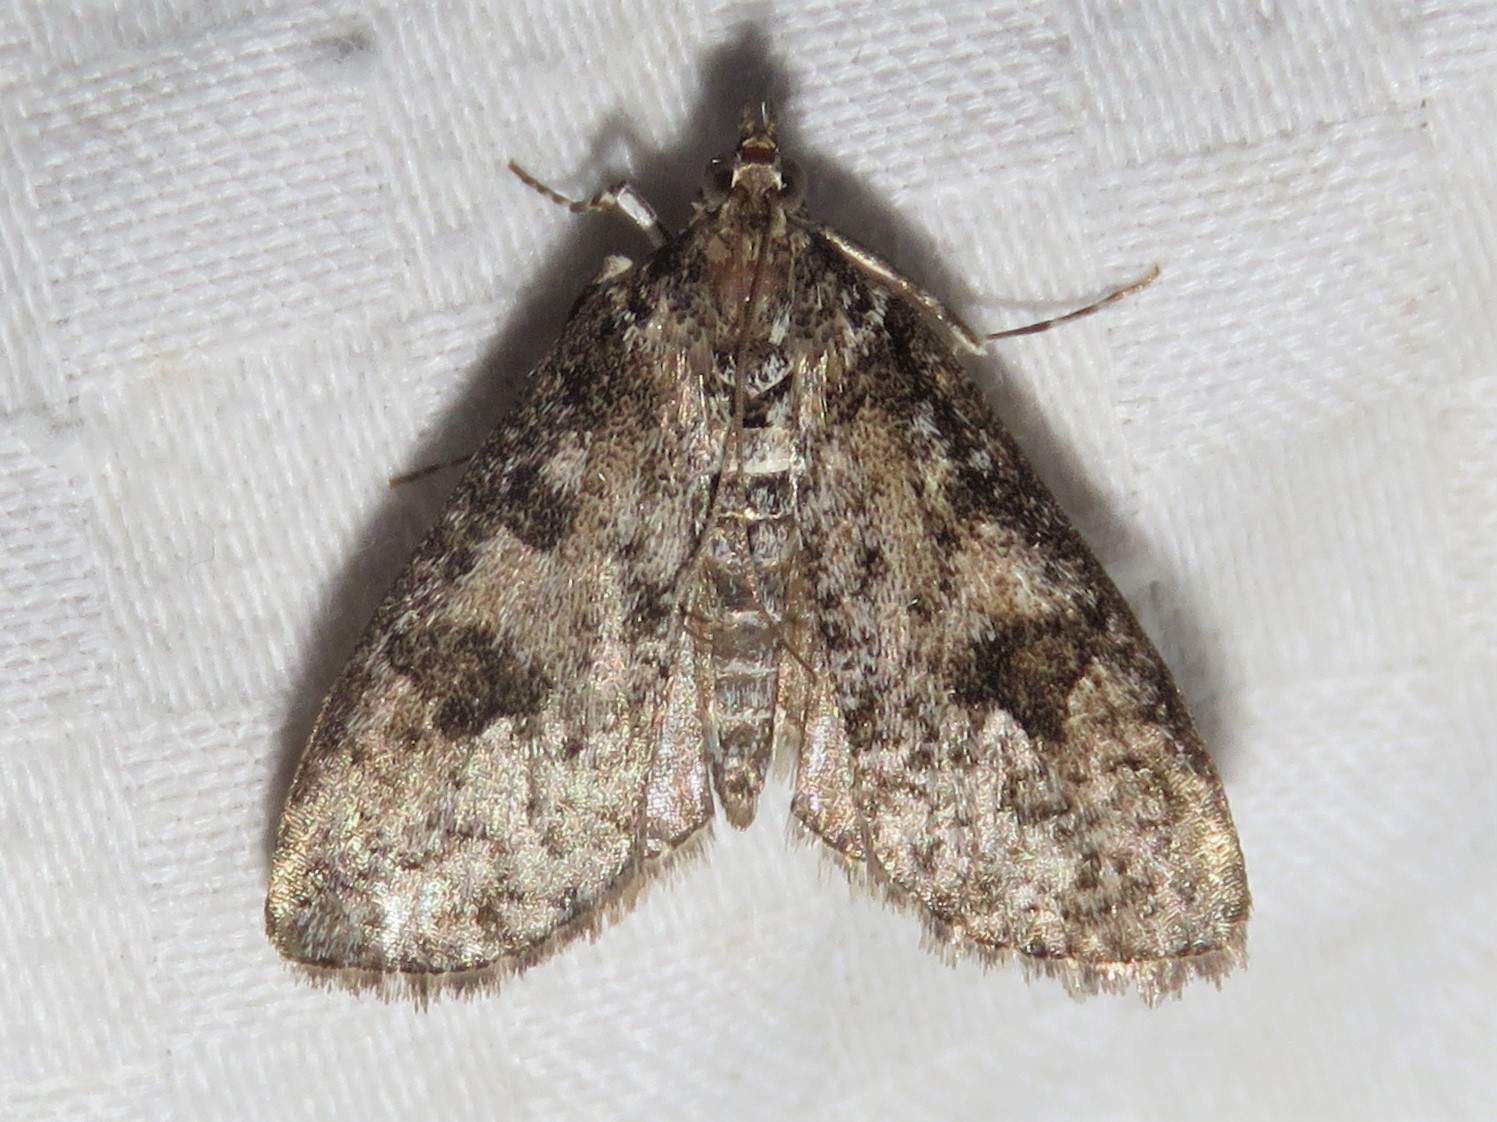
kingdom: Animalia
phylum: Arthropoda
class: Insecta
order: Lepidoptera
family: Crambidae
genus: Palpita
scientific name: Palpita magniferalis
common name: Splendid palpita moth
